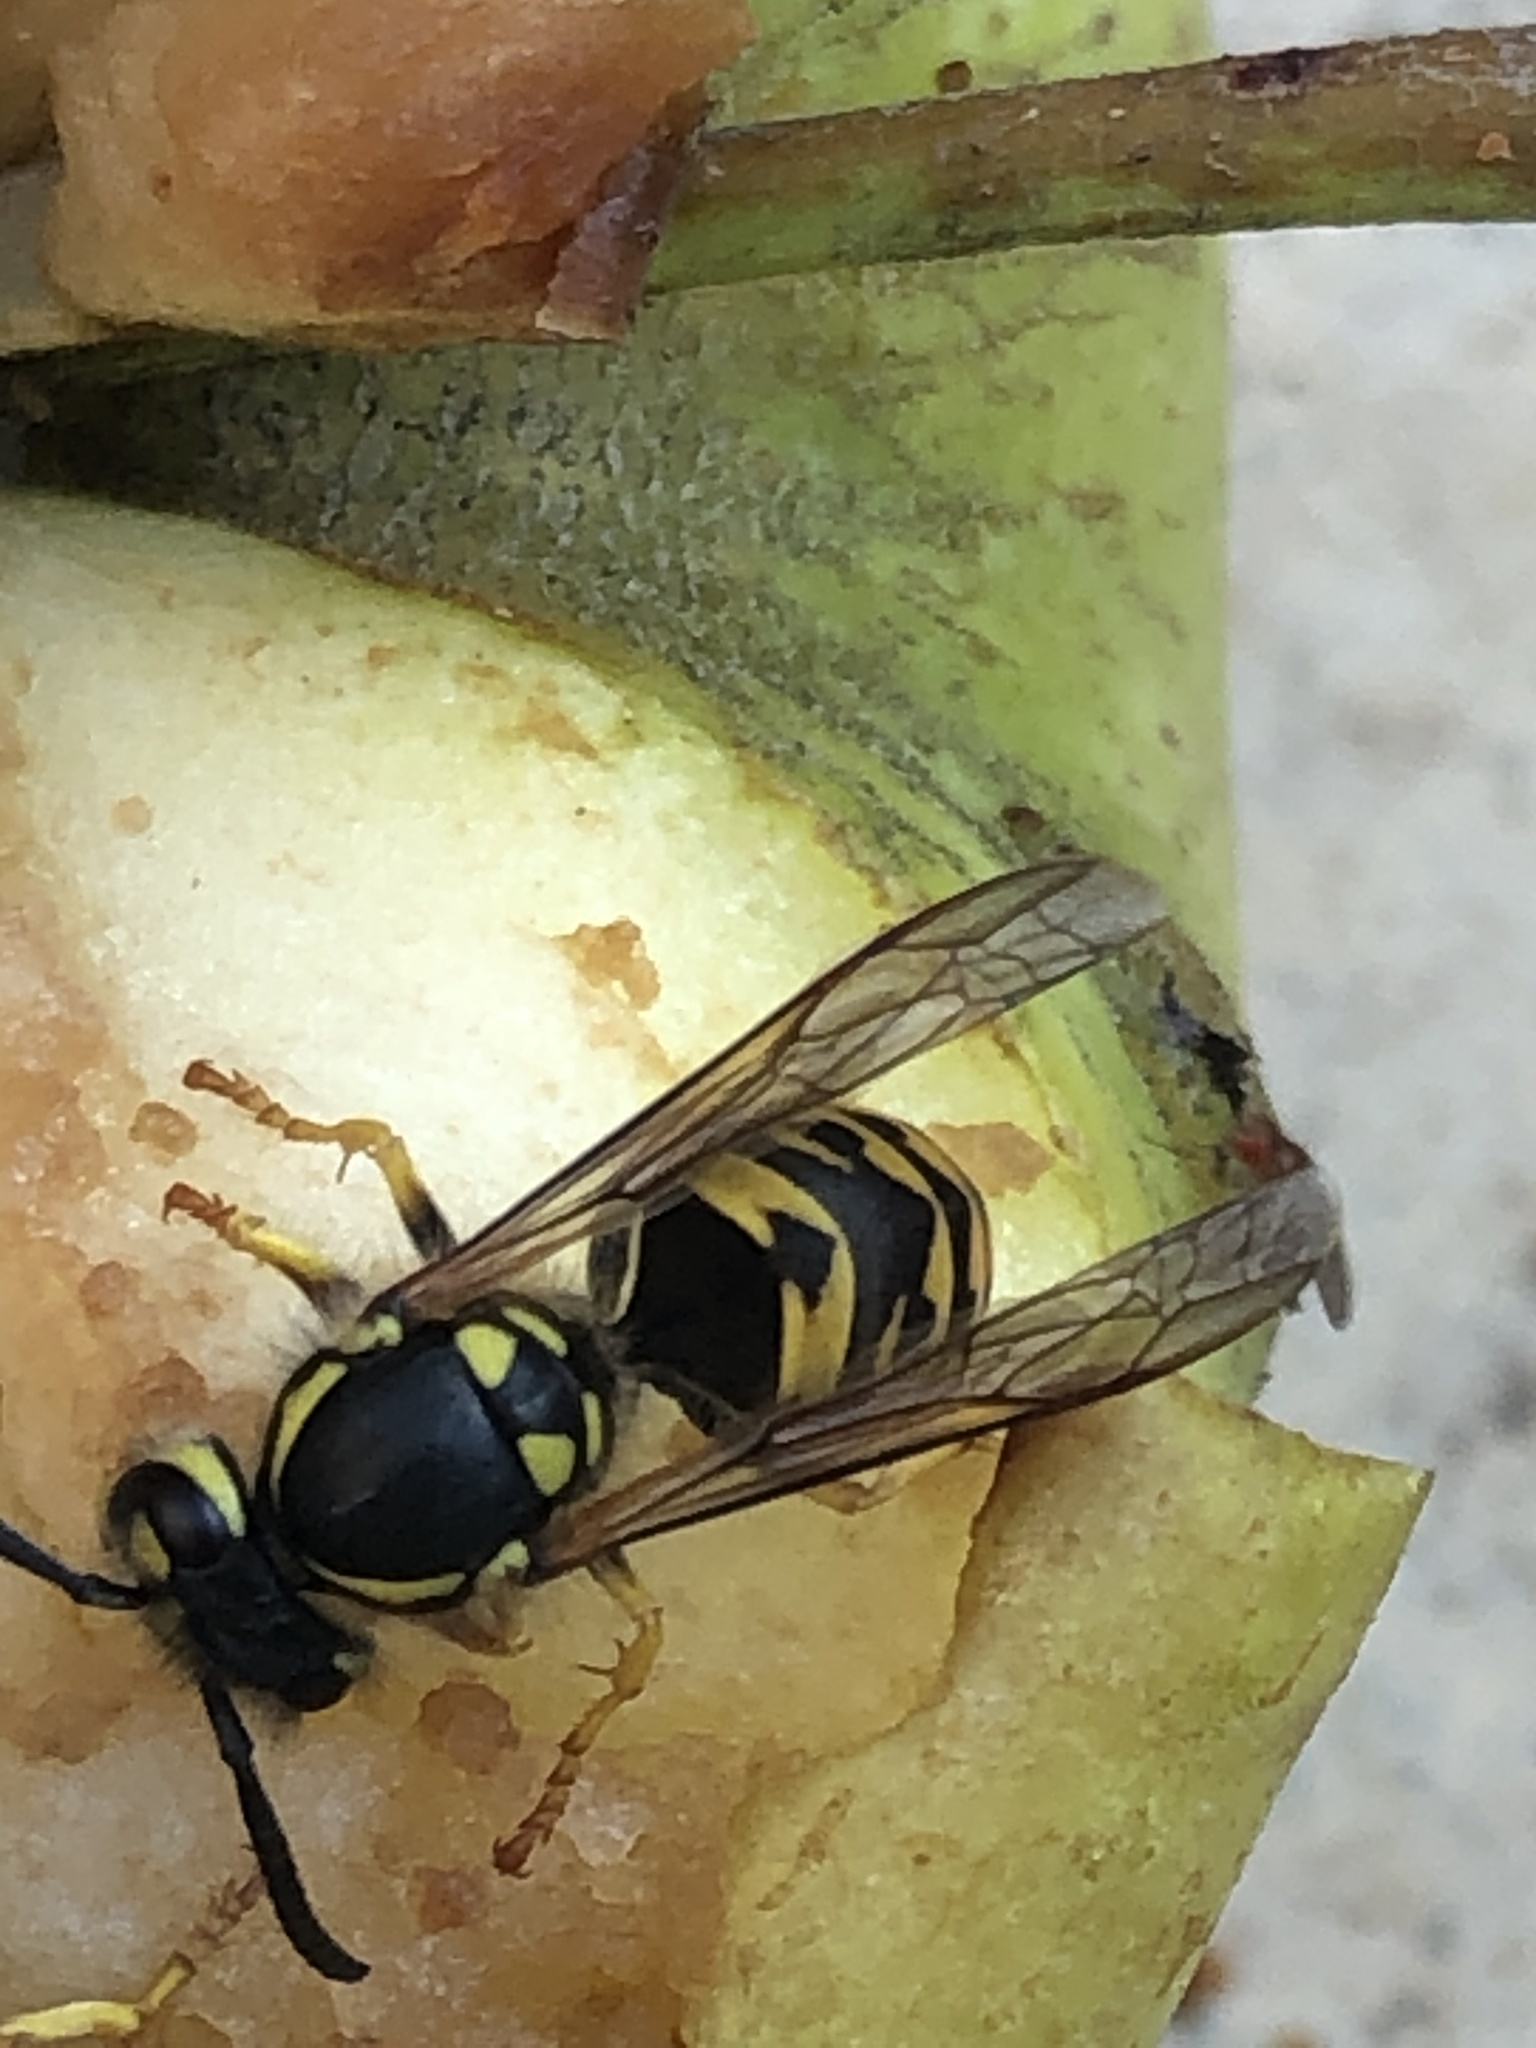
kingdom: Animalia
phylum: Arthropoda
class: Insecta
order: Hymenoptera
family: Vespidae
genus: Vespula
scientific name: Vespula germanica
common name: German wasp
